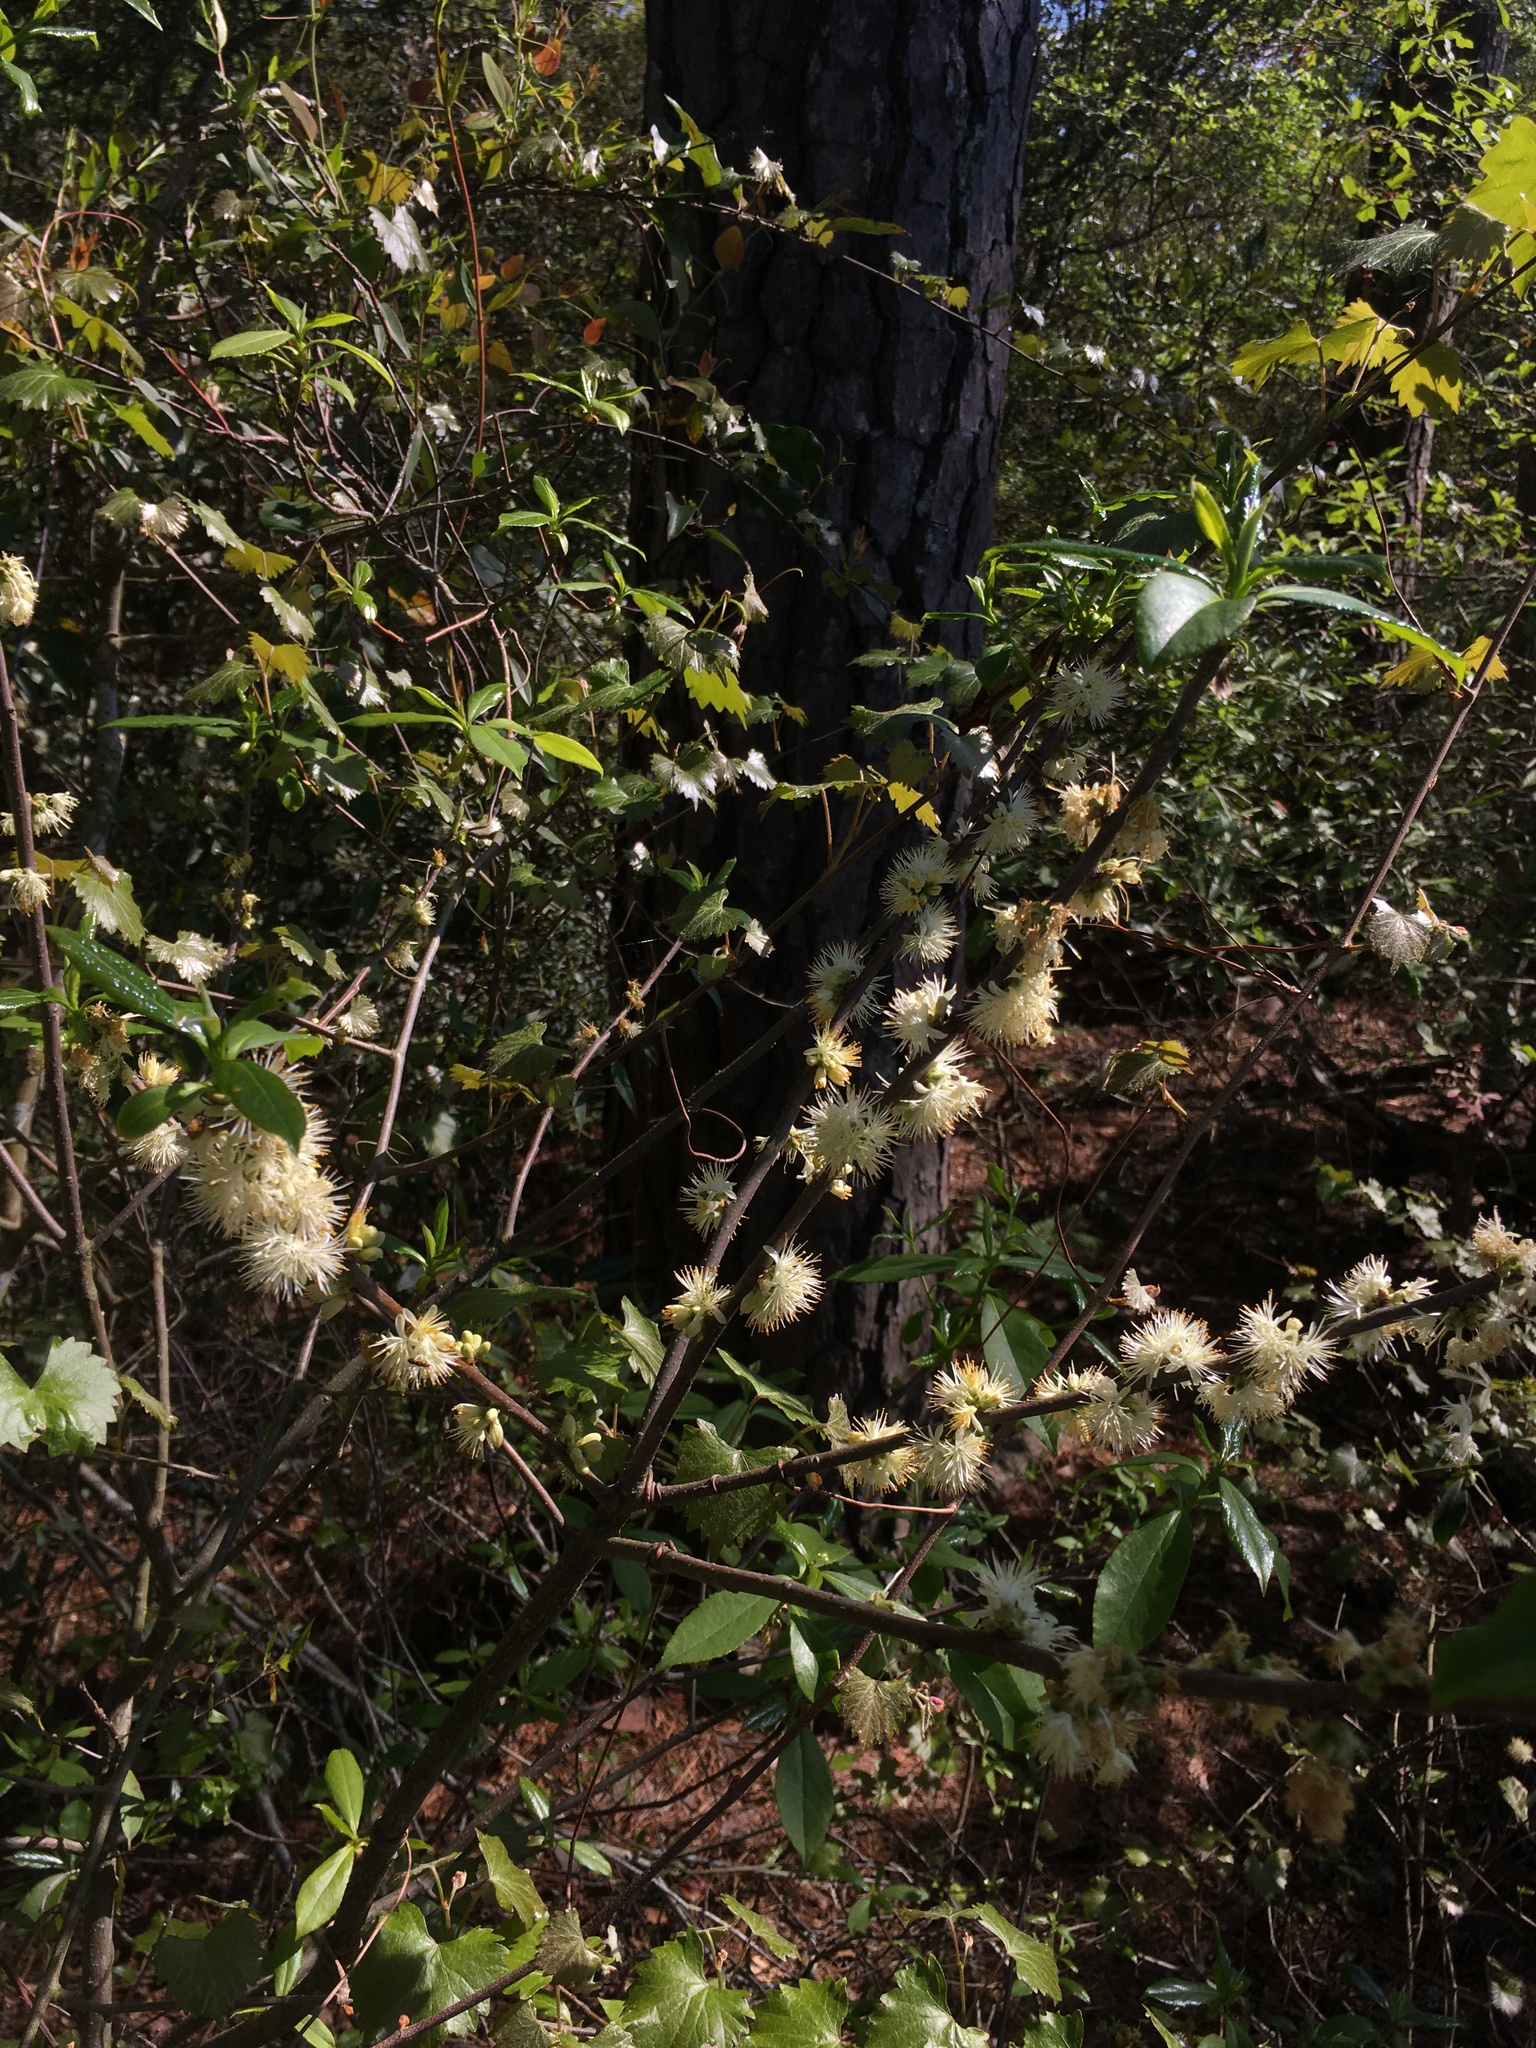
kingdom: Plantae
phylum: Tracheophyta
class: Magnoliopsida
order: Ericales
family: Symplocaceae
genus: Symplocos
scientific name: Symplocos tinctoria
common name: Horse-sugar
